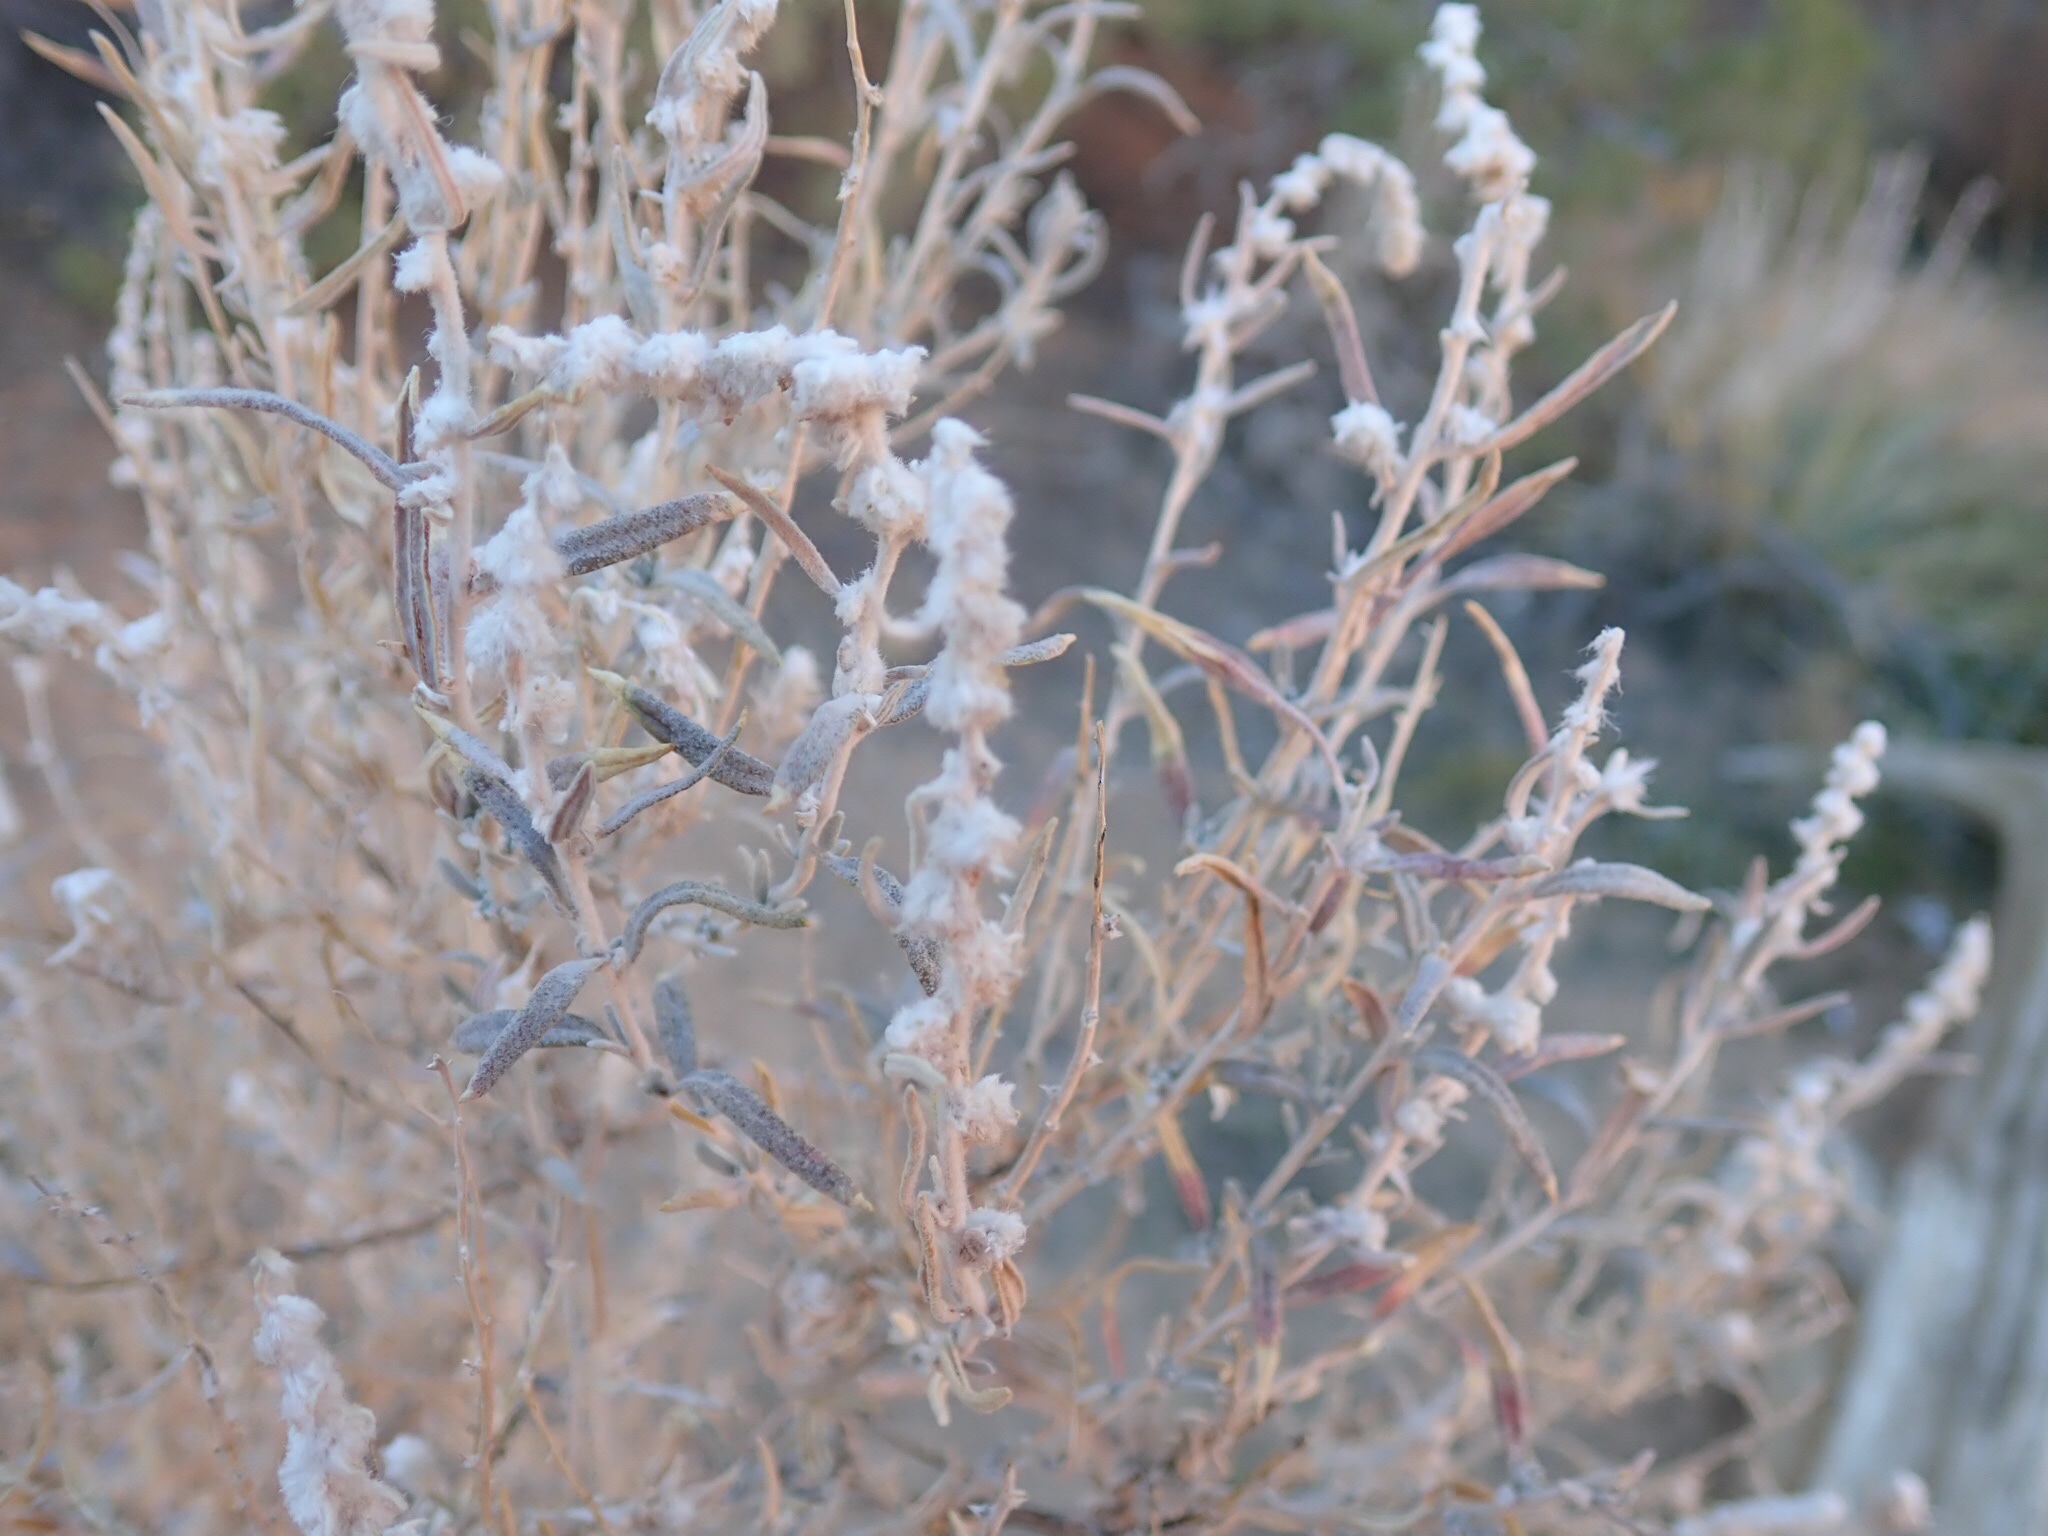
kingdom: Plantae
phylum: Tracheophyta
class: Magnoliopsida
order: Caryophyllales
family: Amaranthaceae
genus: Krascheninnikovia
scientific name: Krascheninnikovia lanata
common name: Winterfat
